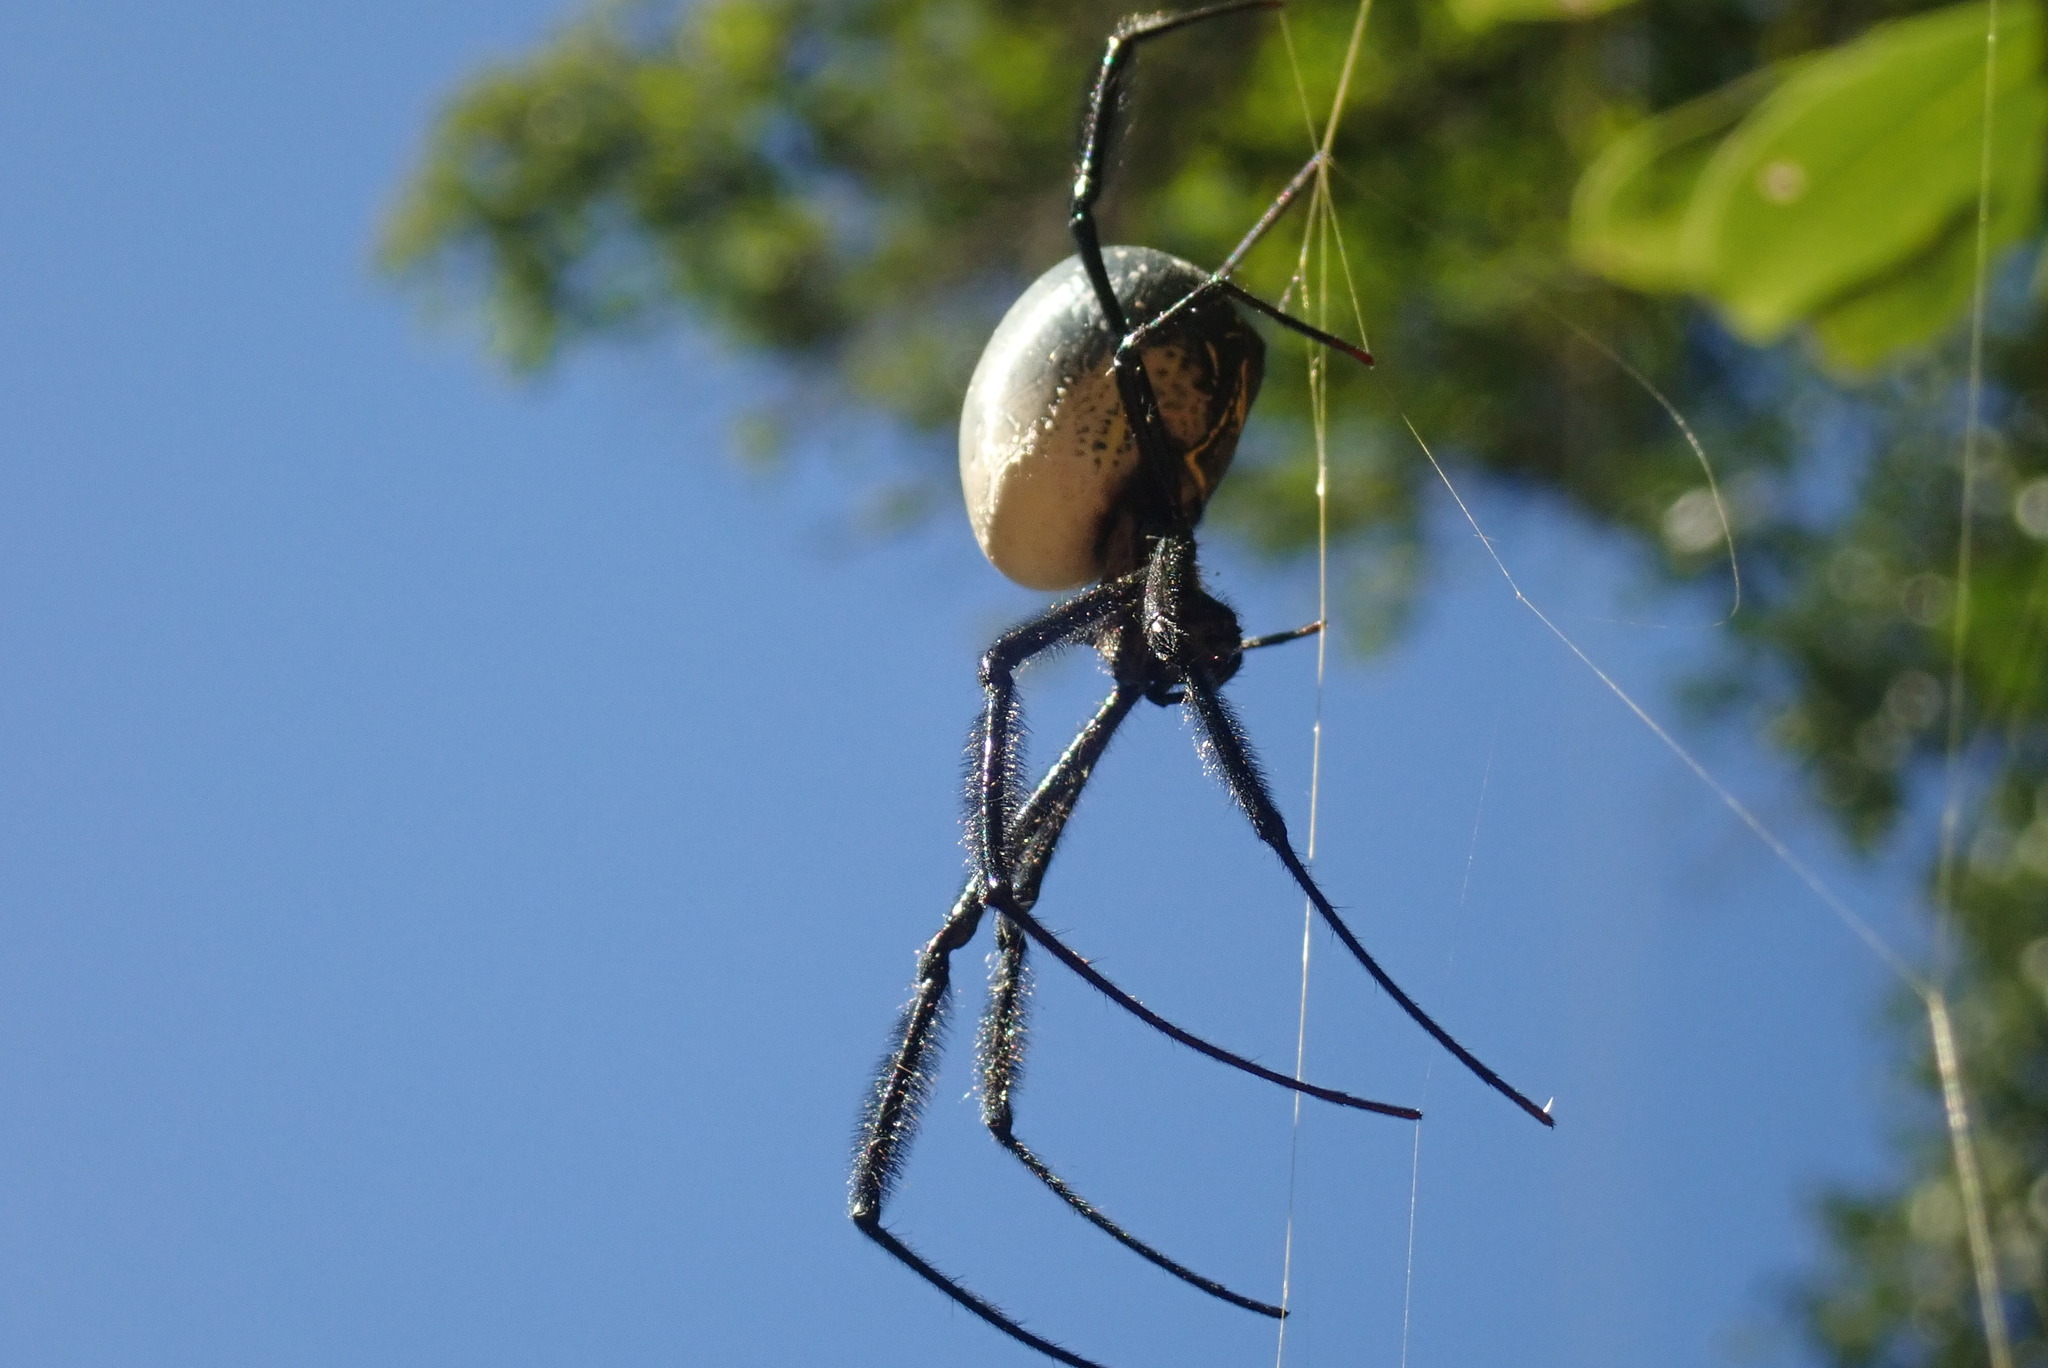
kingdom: Animalia
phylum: Arthropoda
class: Arachnida
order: Araneae
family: Araneidae
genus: Trichonephila
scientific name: Trichonephila fenestrata
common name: Hairy golden orb weaver
